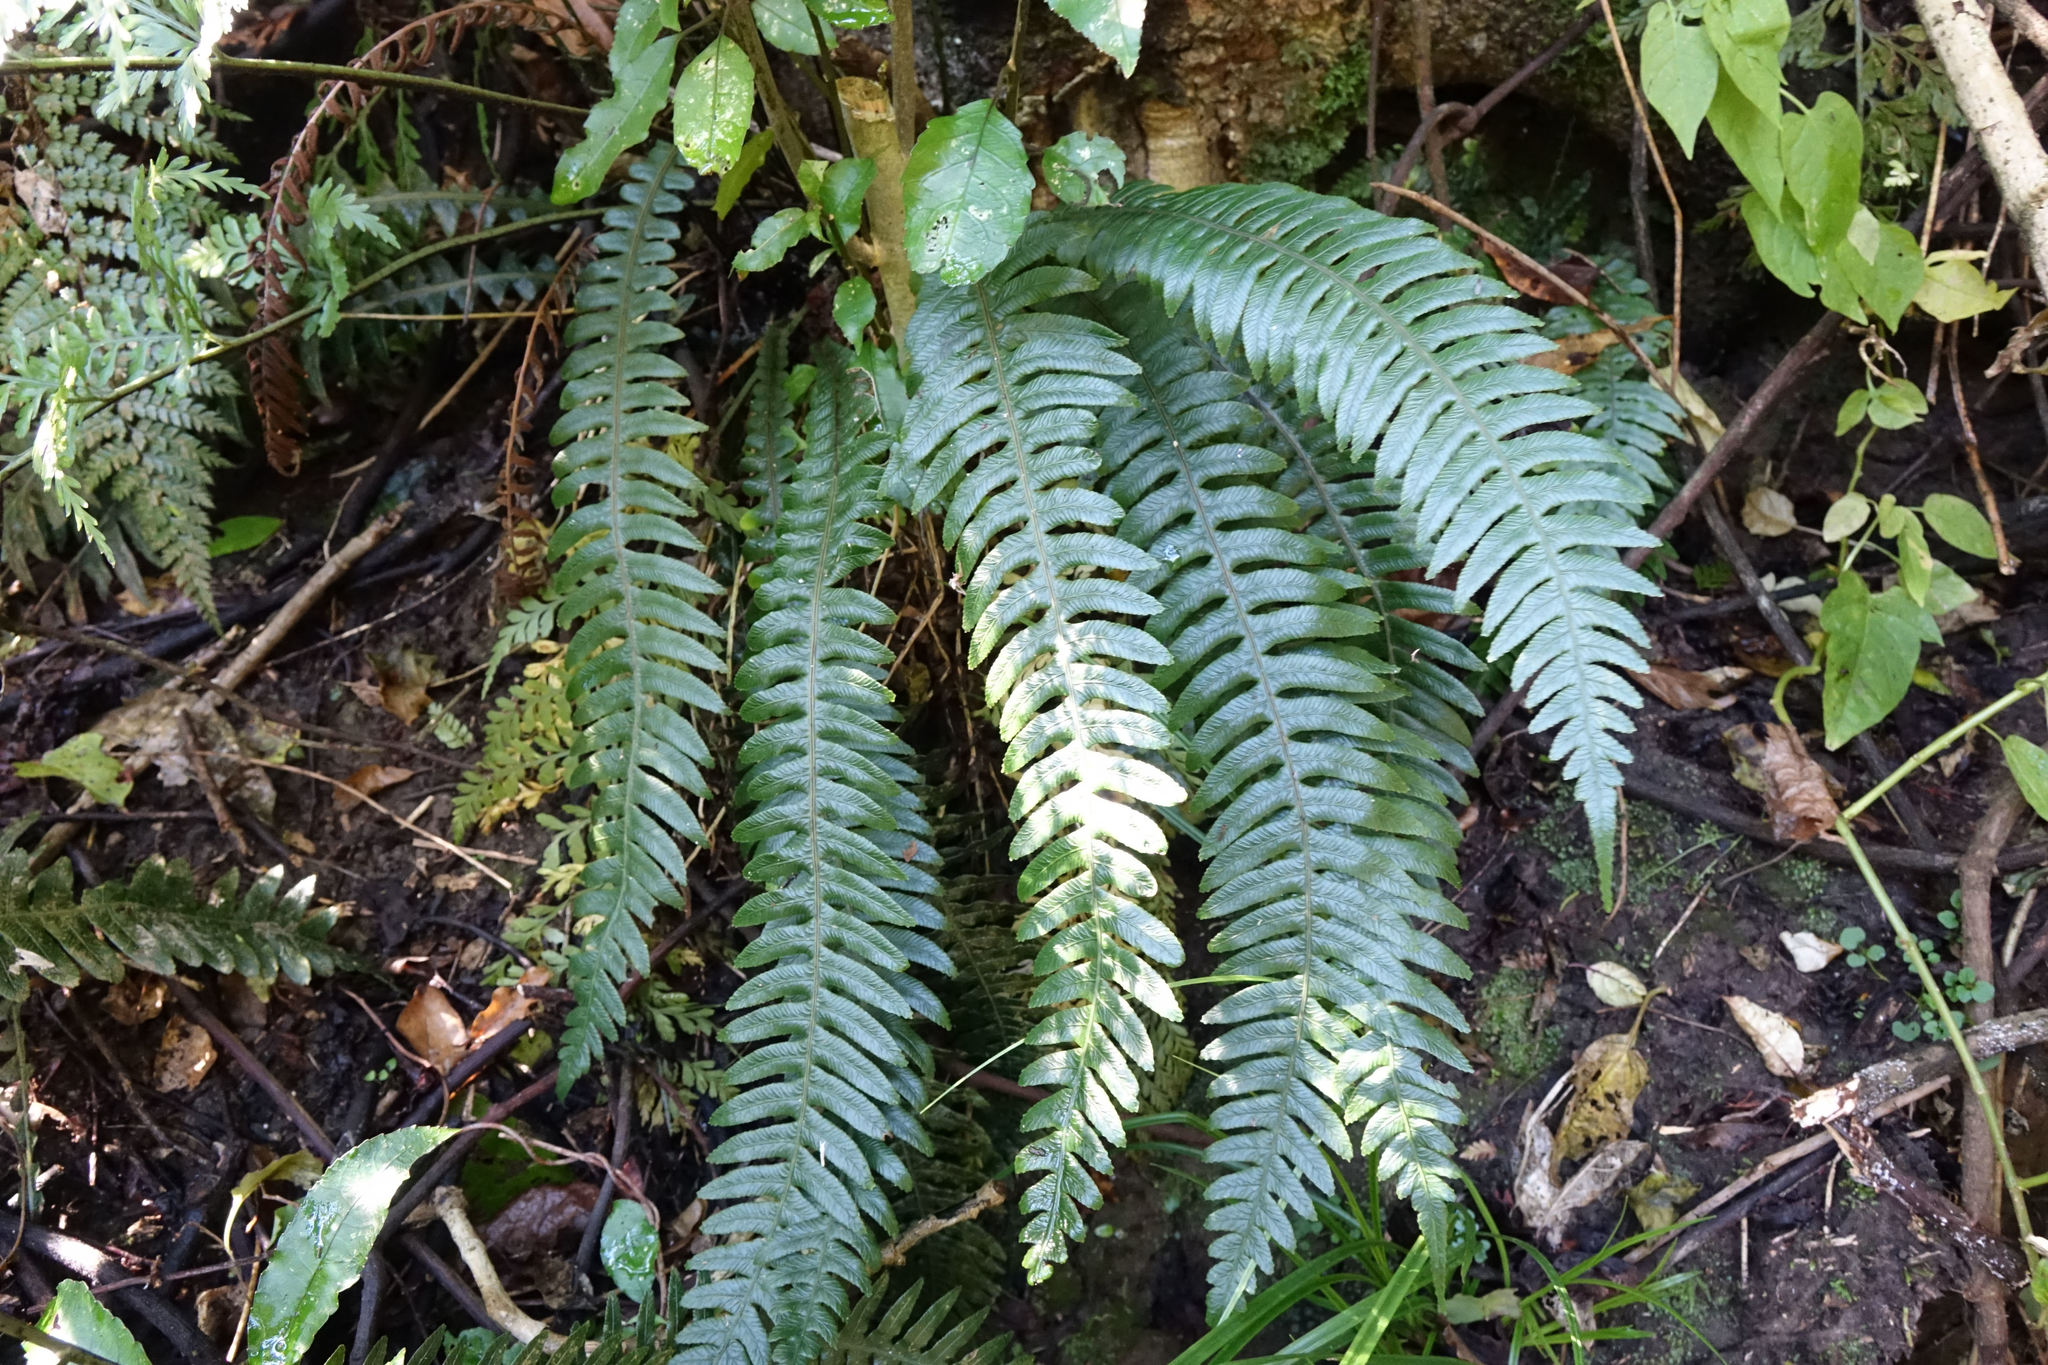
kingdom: Plantae
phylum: Tracheophyta
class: Polypodiopsida
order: Polypodiales
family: Blechnaceae
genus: Austroblechnum
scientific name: Austroblechnum lanceolatum
